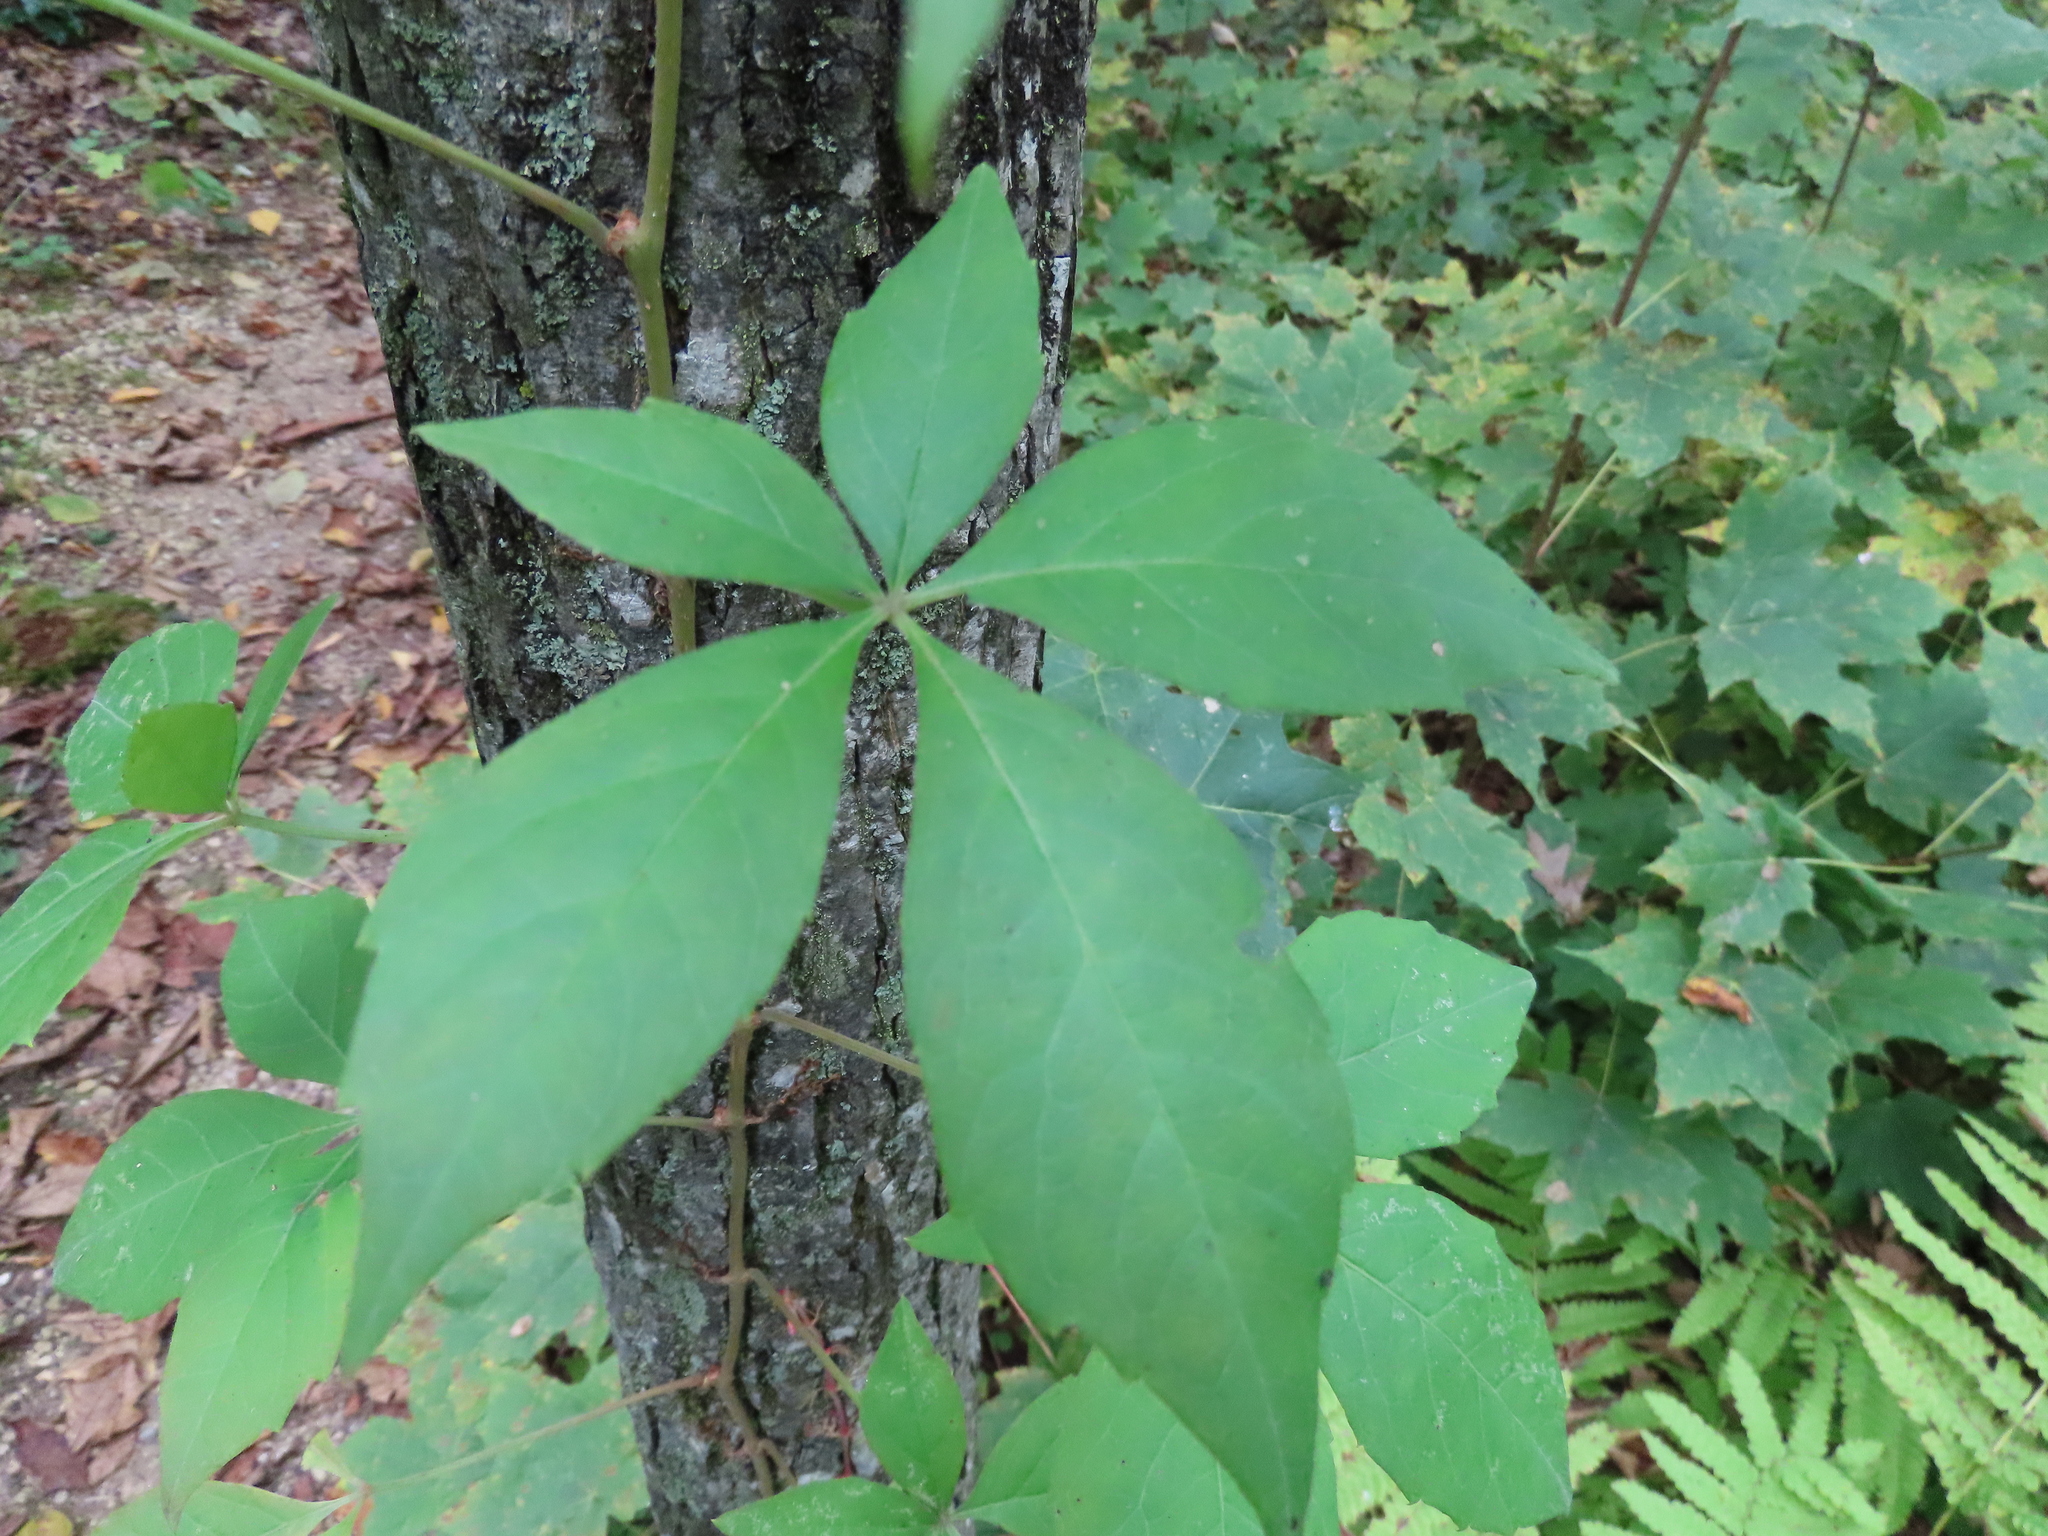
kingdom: Plantae
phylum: Tracheophyta
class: Magnoliopsida
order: Vitales
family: Vitaceae
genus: Parthenocissus
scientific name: Parthenocissus quinquefolia
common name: Virginia-creeper
